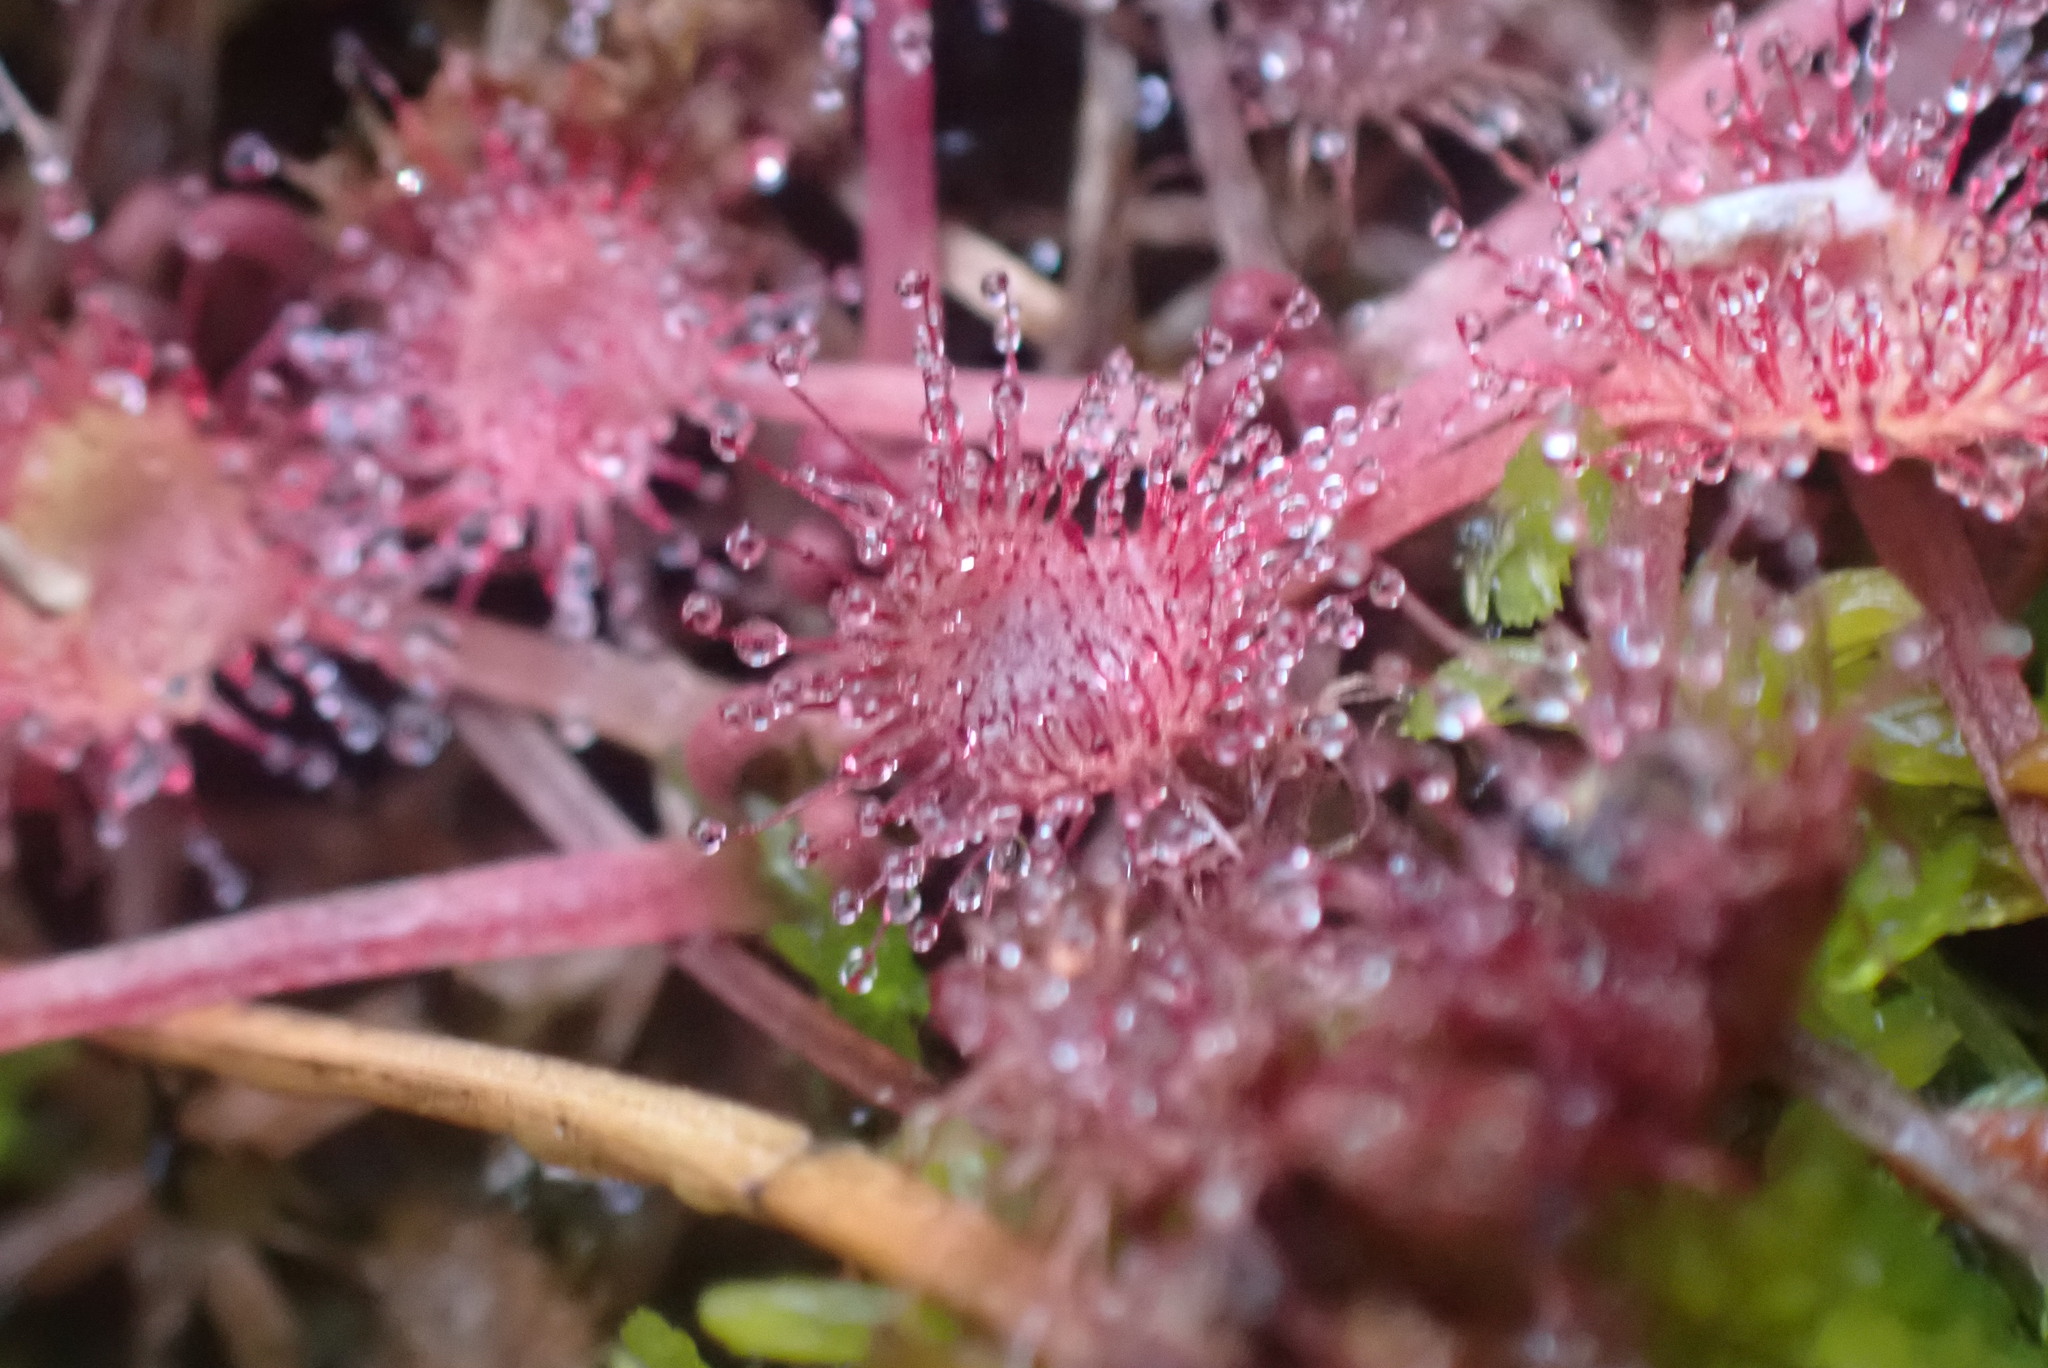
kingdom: Plantae
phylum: Tracheophyta
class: Magnoliopsida
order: Caryophyllales
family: Droseraceae
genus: Drosera
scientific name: Drosera rotundifolia
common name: Round-leaved sundew
